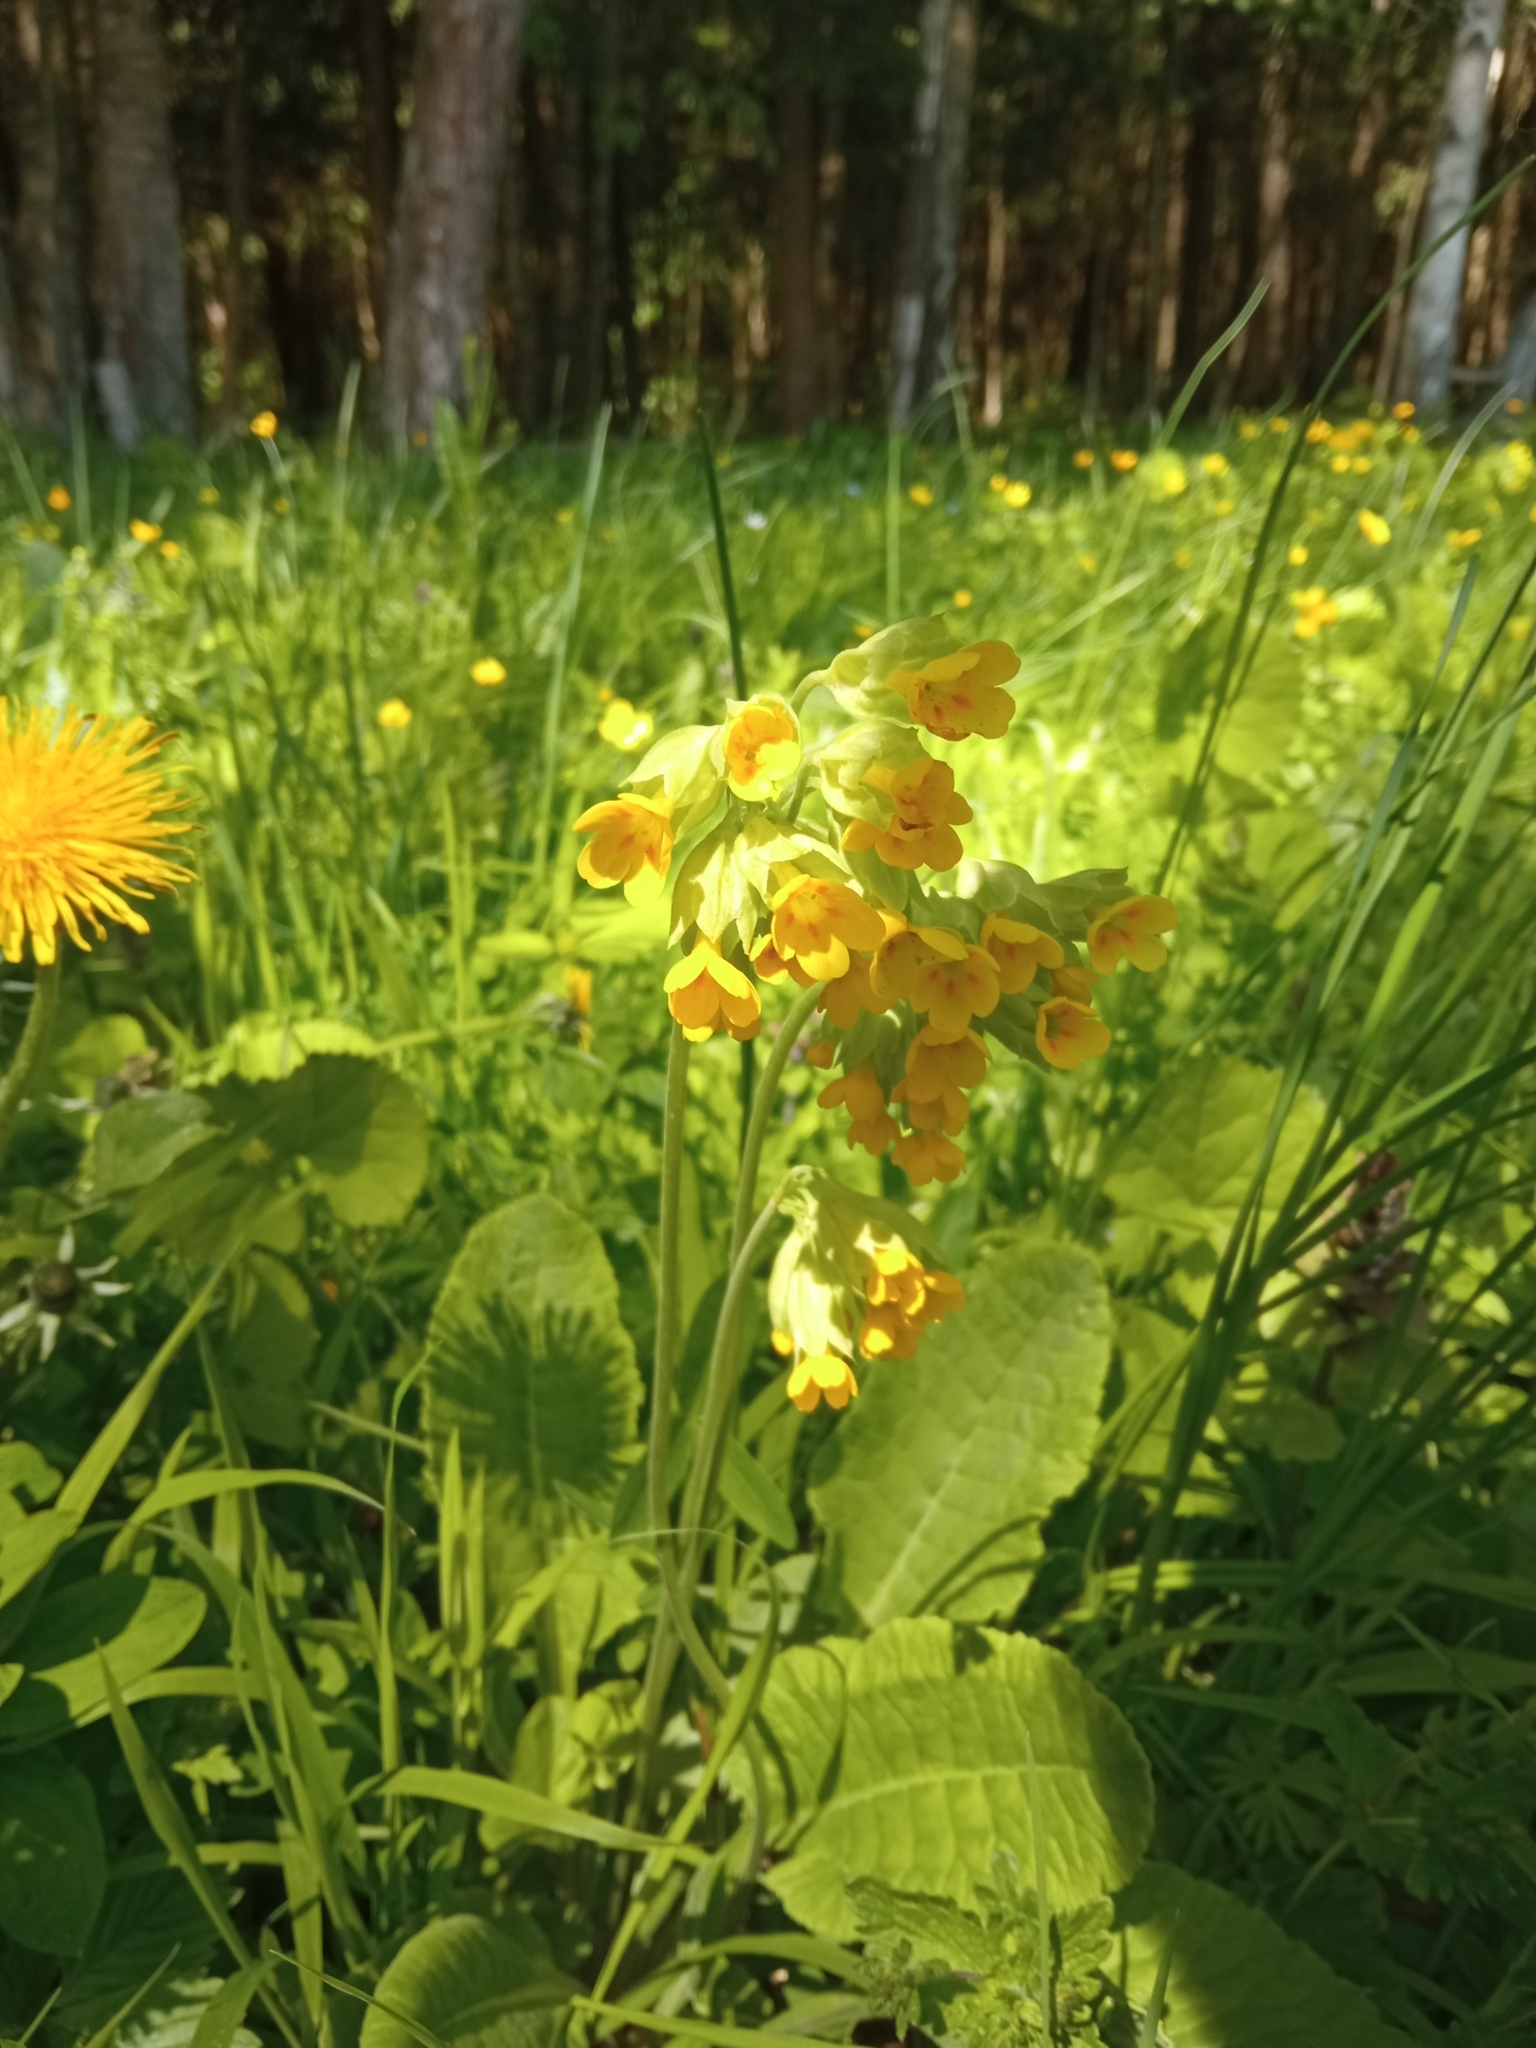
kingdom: Plantae
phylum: Tracheophyta
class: Magnoliopsida
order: Ericales
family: Primulaceae
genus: Primula
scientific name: Primula veris
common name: Cowslip
